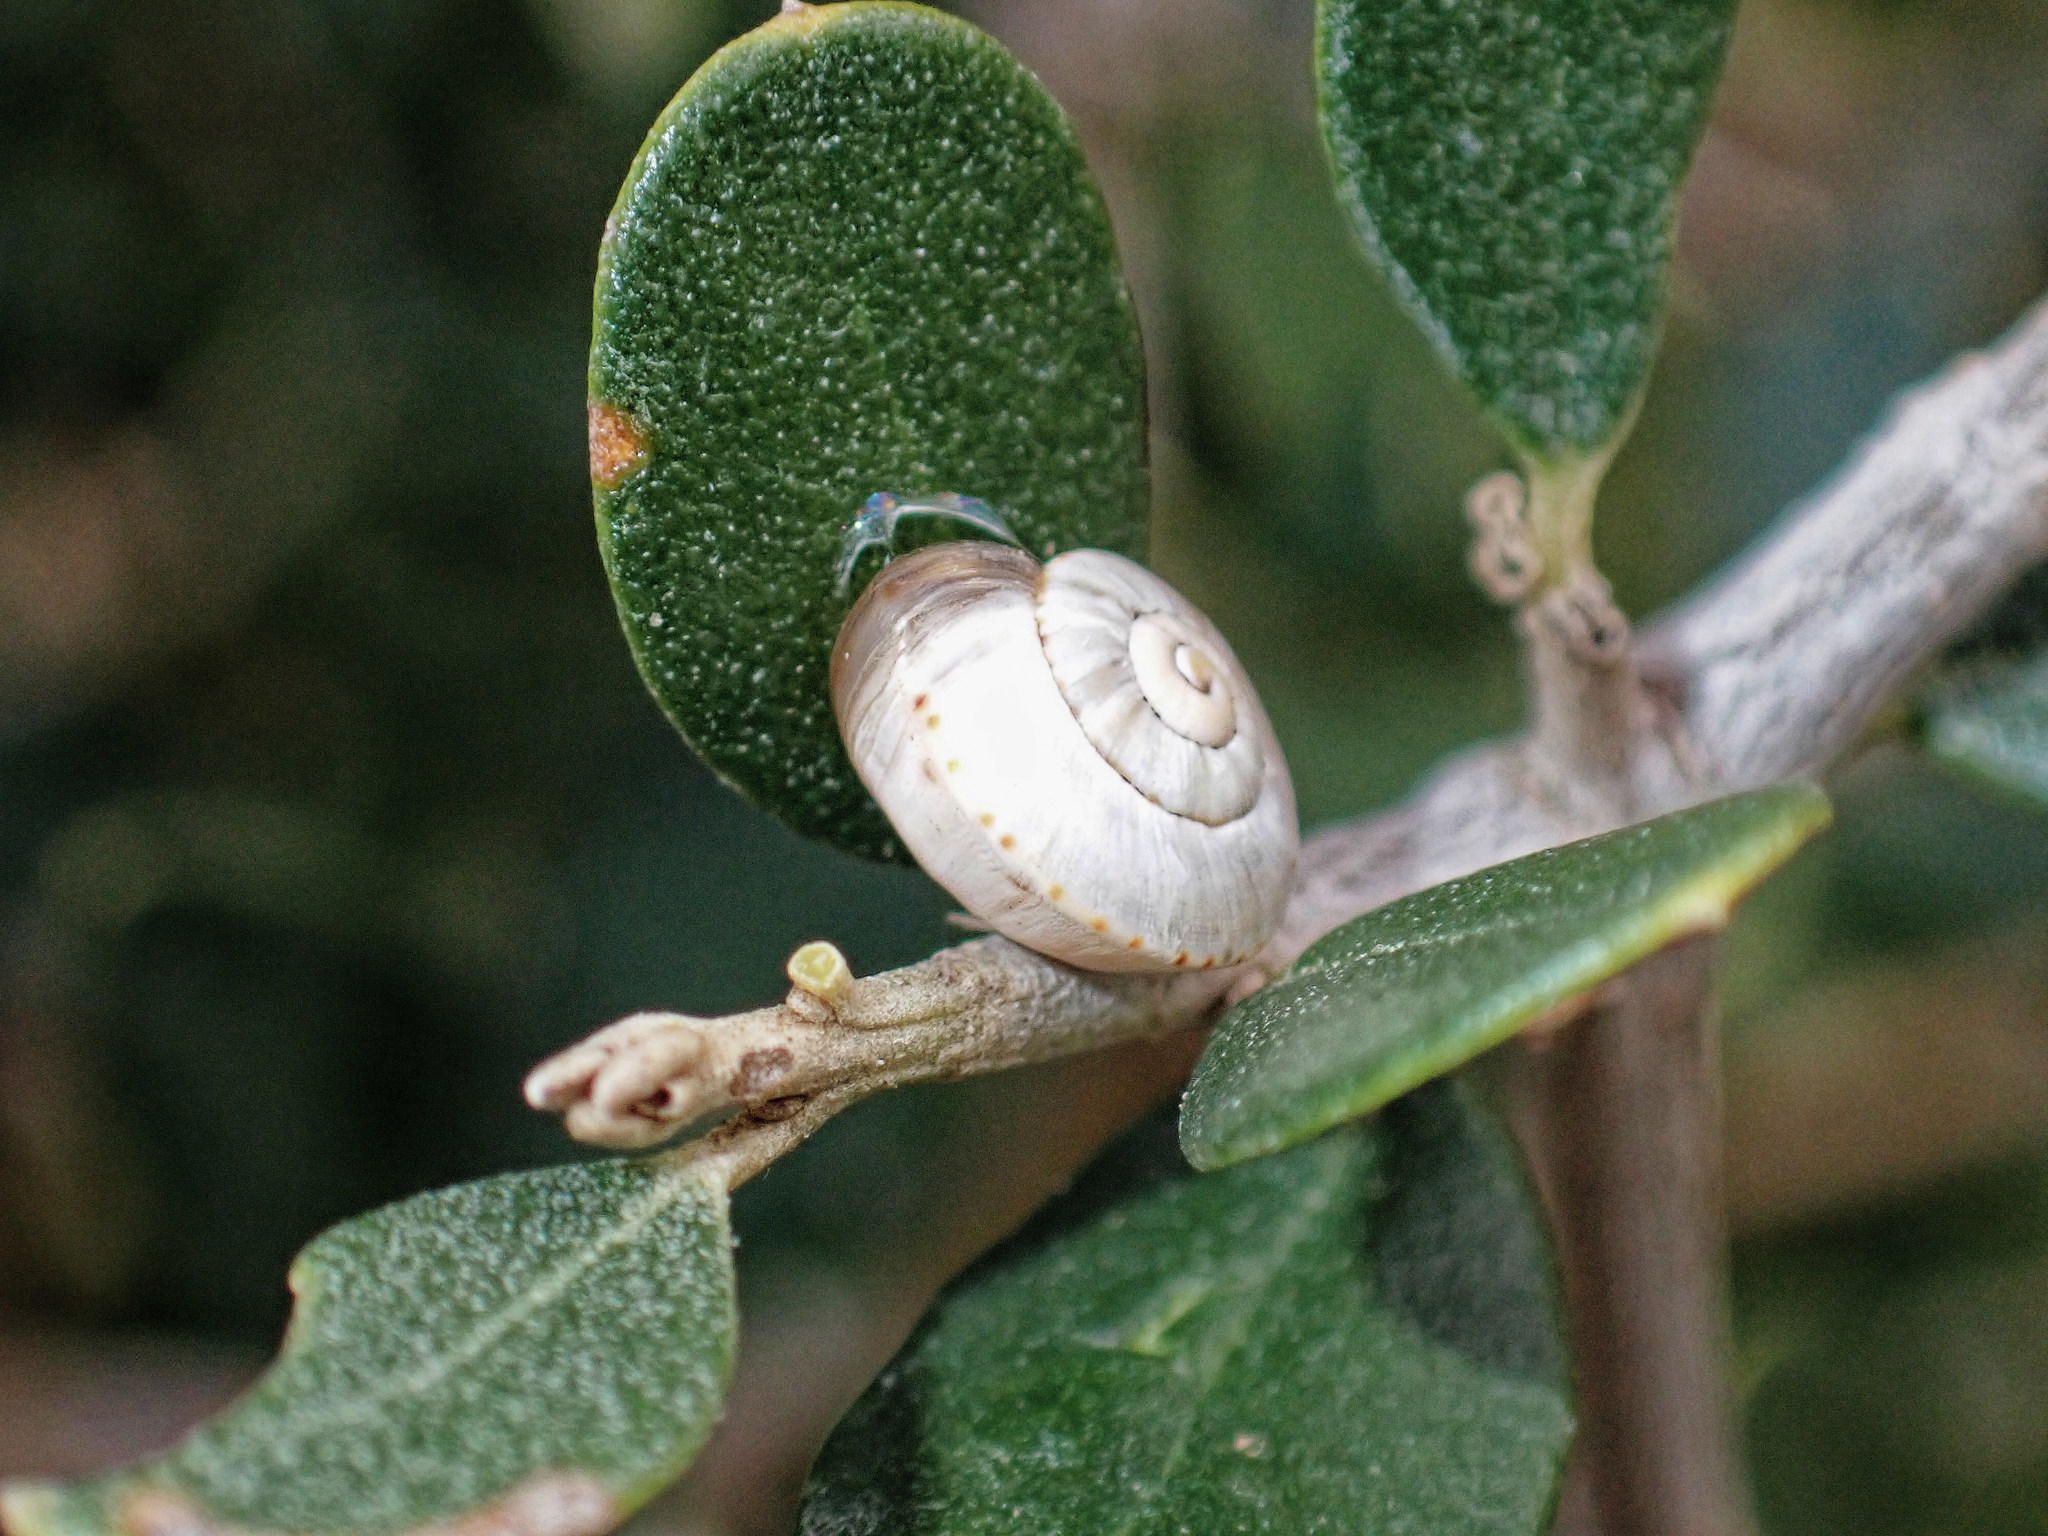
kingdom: Animalia
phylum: Mollusca
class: Gastropoda
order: Stylommatophora
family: Helicidae
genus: Theba
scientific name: Theba pisana
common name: White snail
